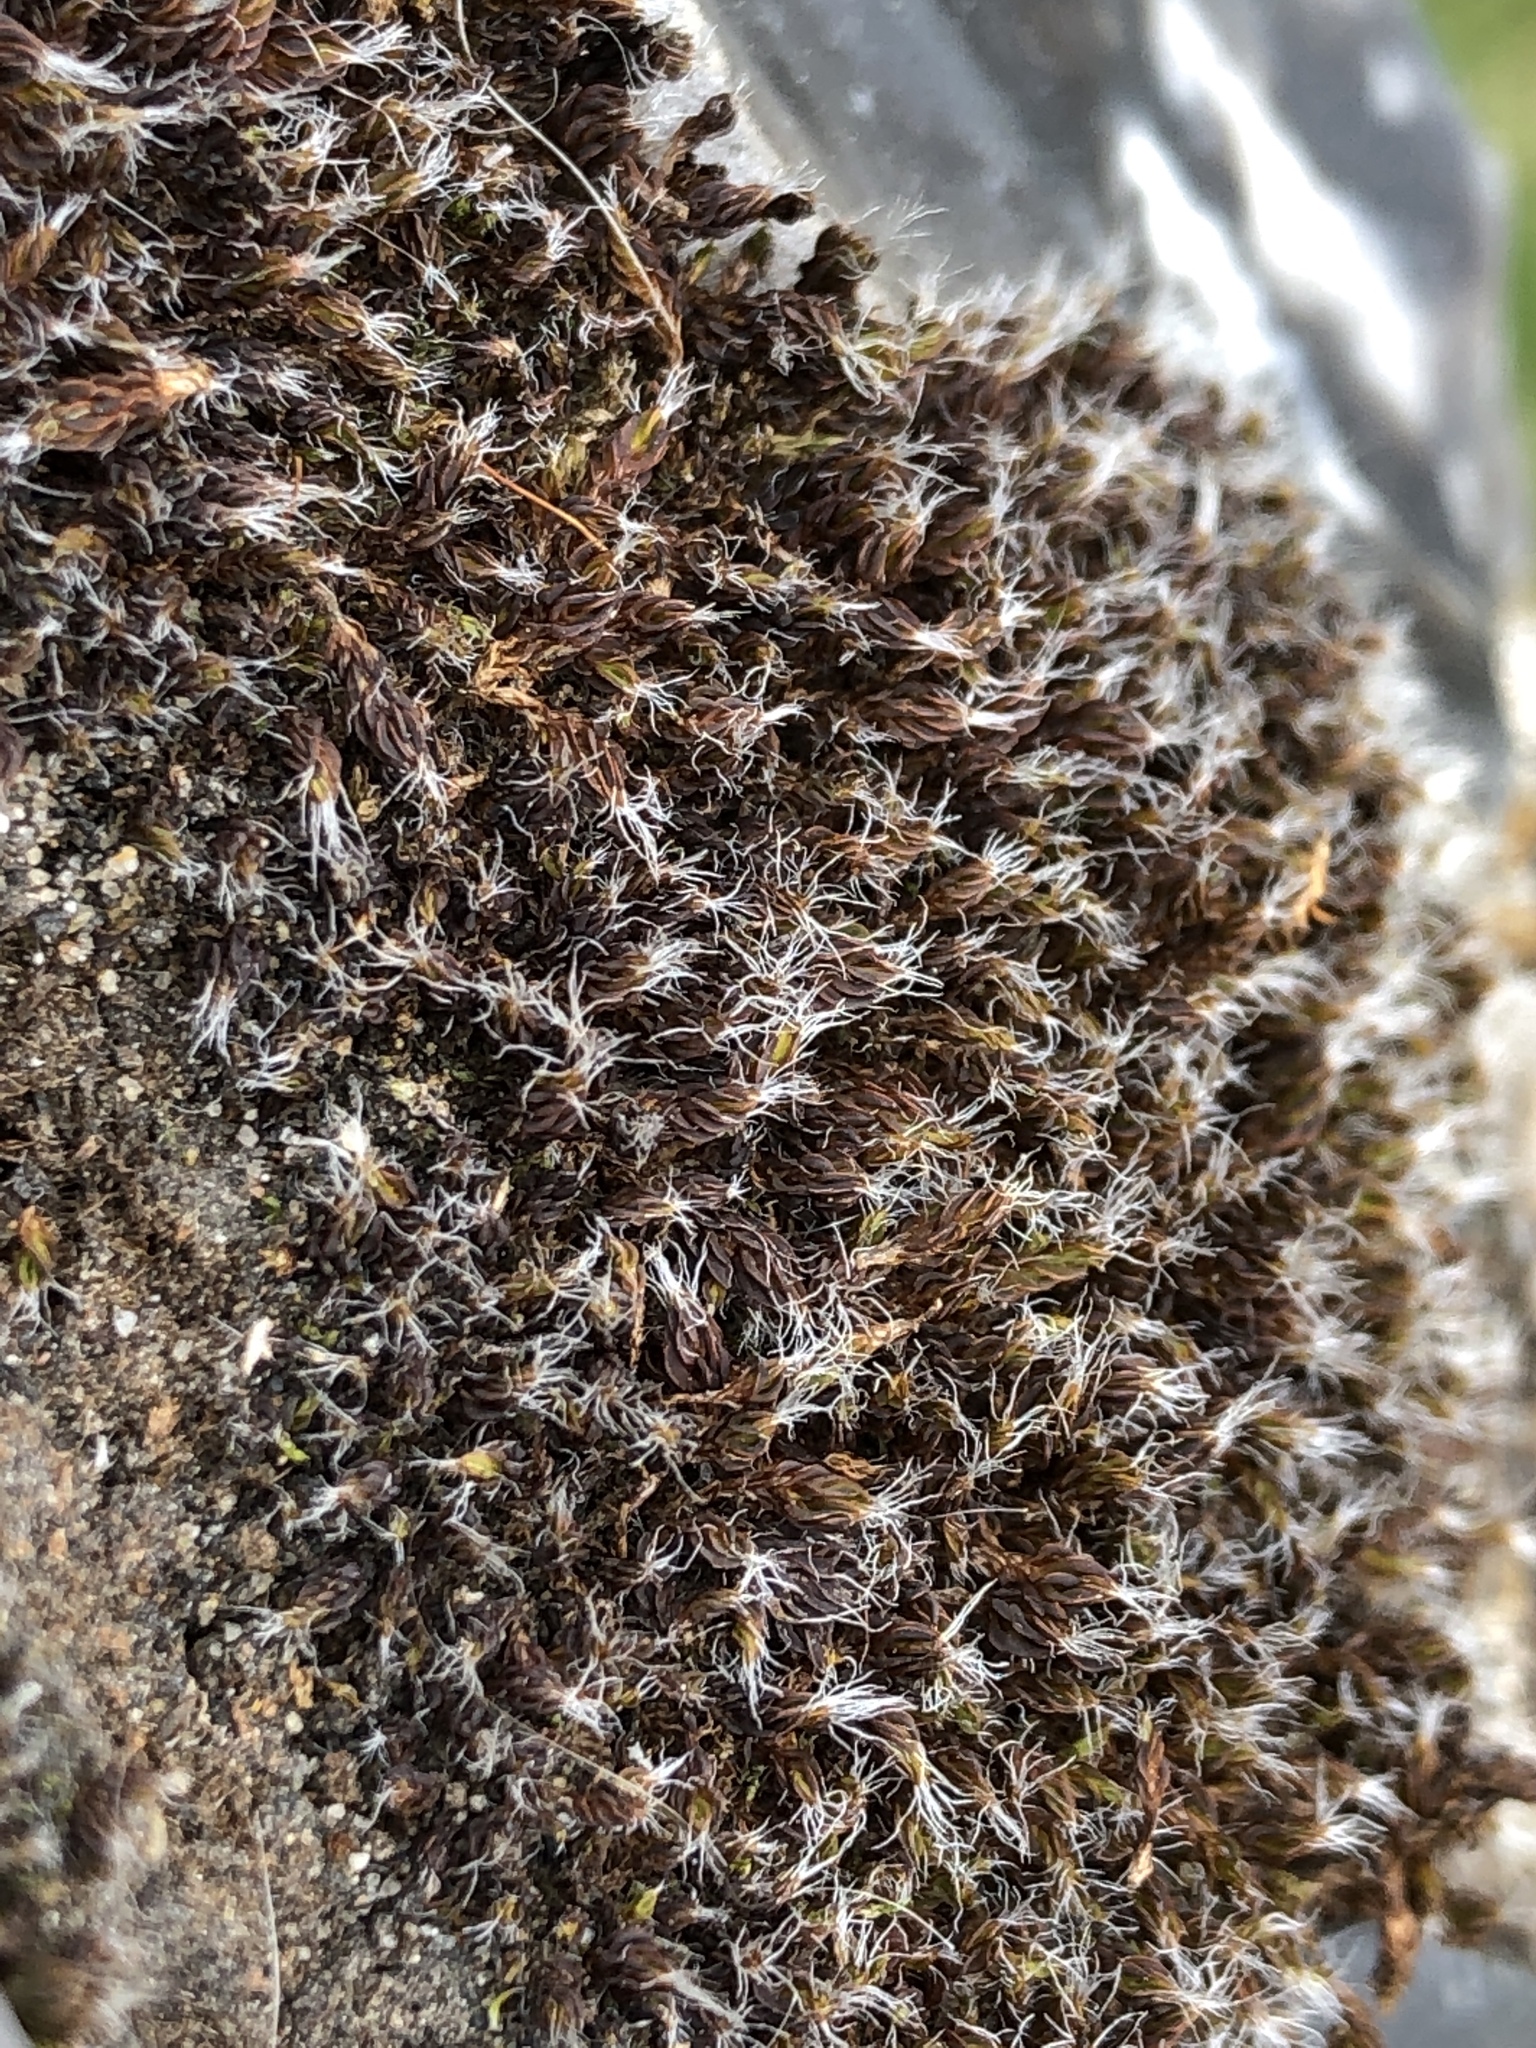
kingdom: Plantae
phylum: Bryophyta
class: Bryopsida
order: Grimmiales
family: Grimmiaceae
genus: Grimmia
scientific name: Grimmia pulvinata
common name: Grey-cushioned grimmia
